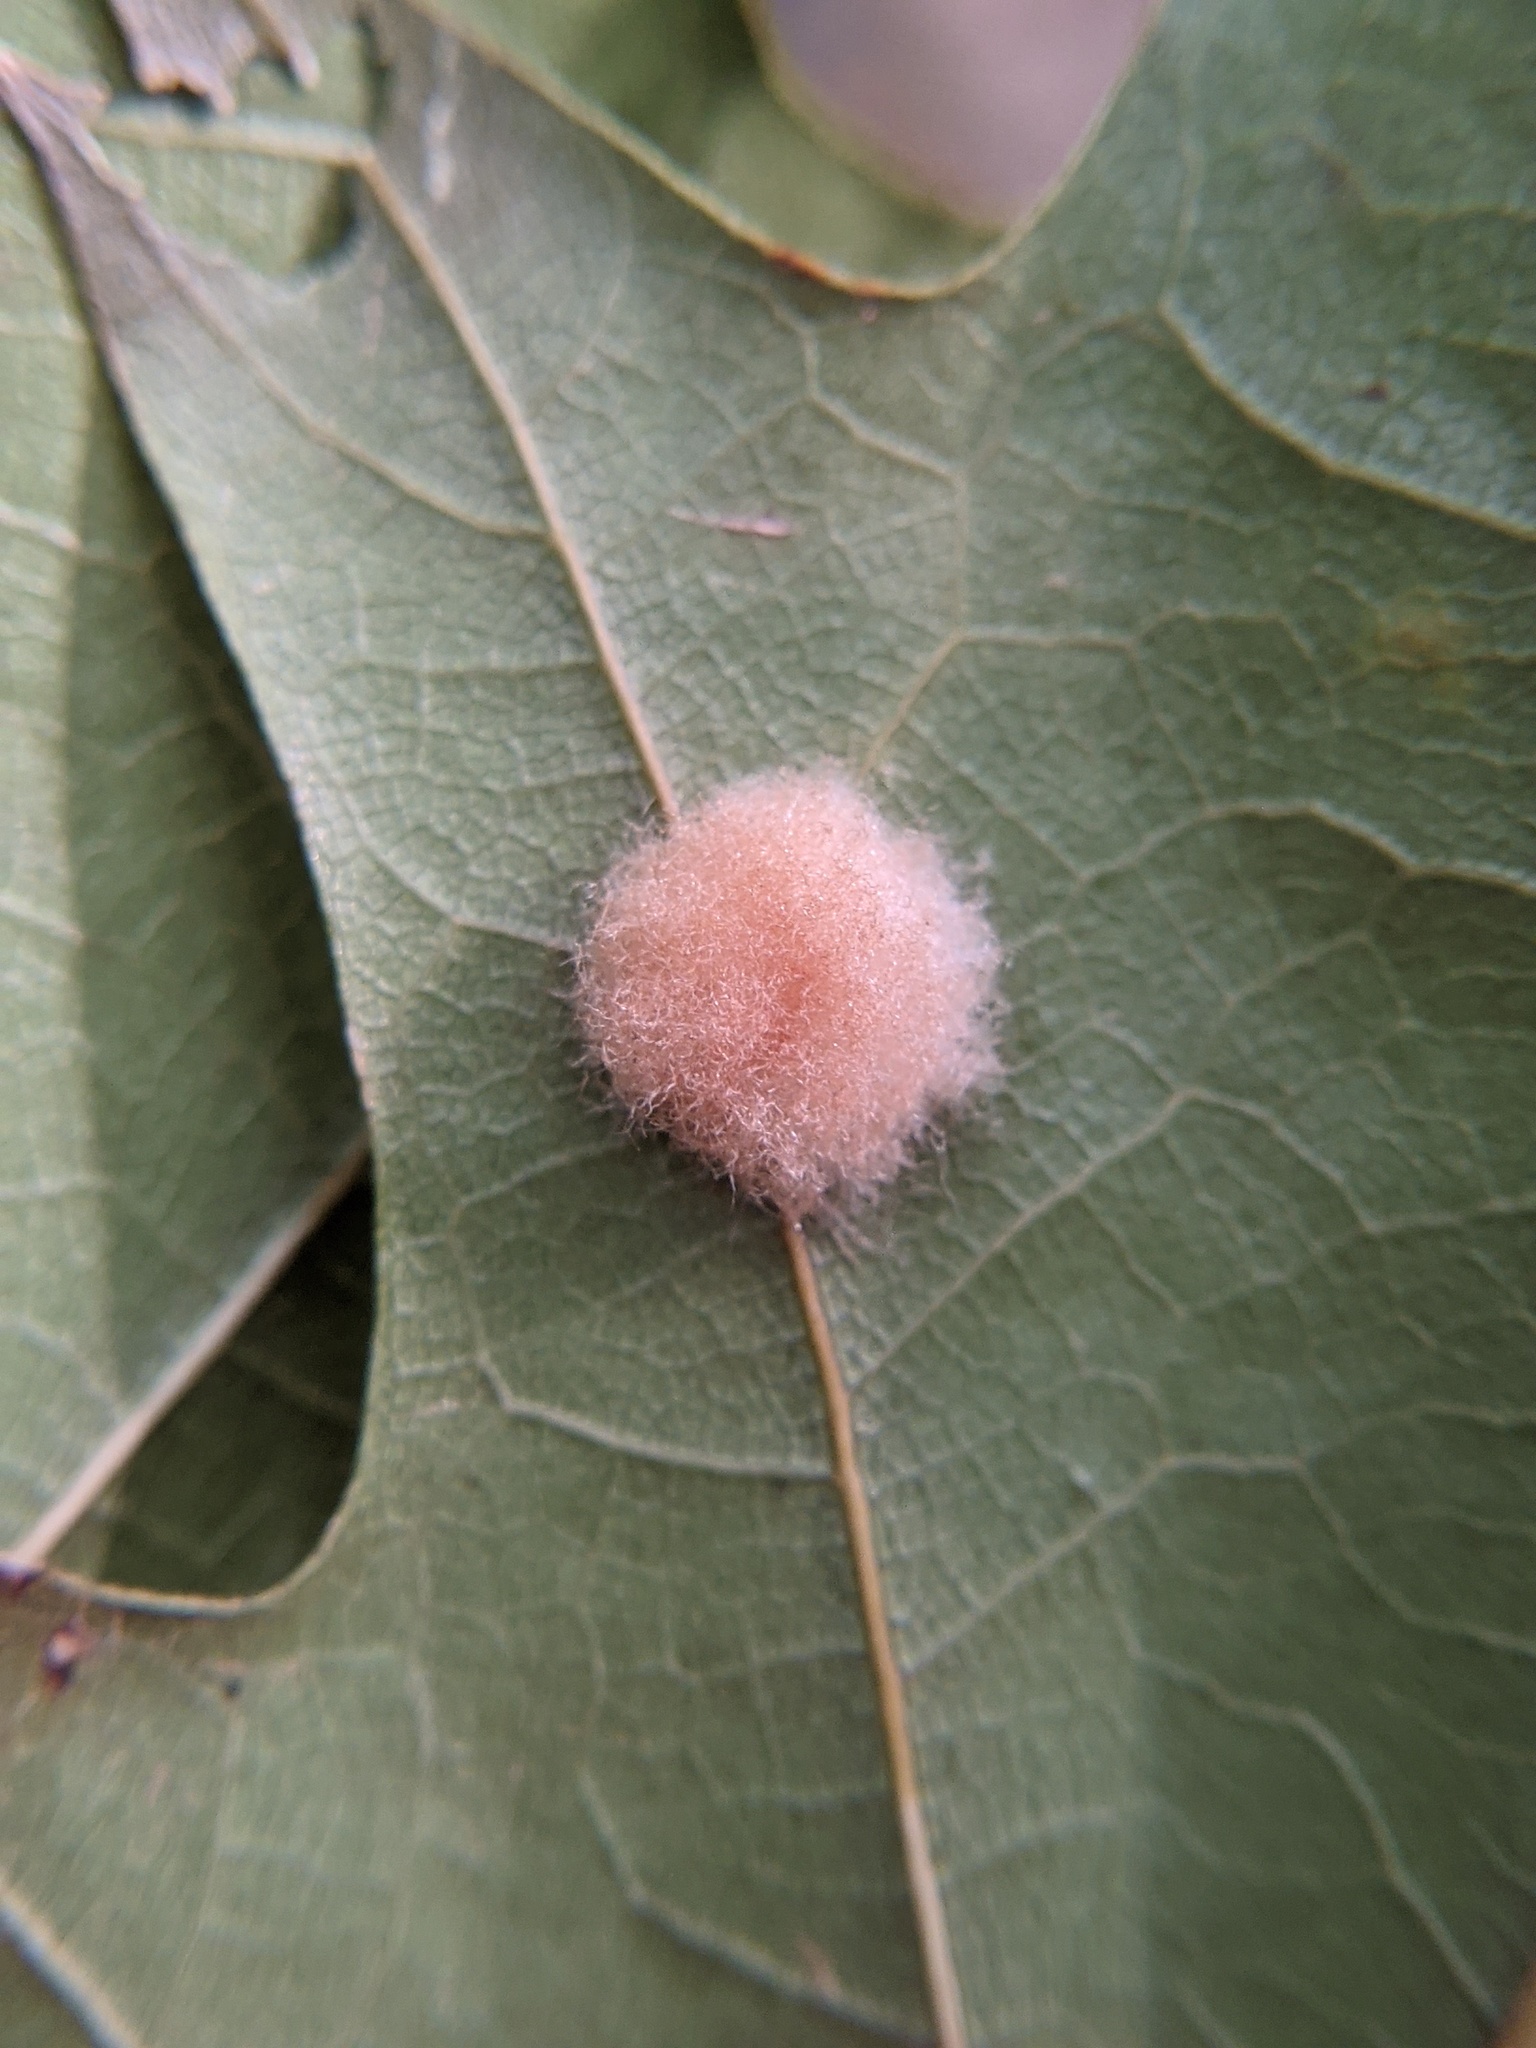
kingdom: Animalia
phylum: Arthropoda
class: Insecta
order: Hymenoptera
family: Cynipidae
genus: Callirhytis
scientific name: Callirhytis
